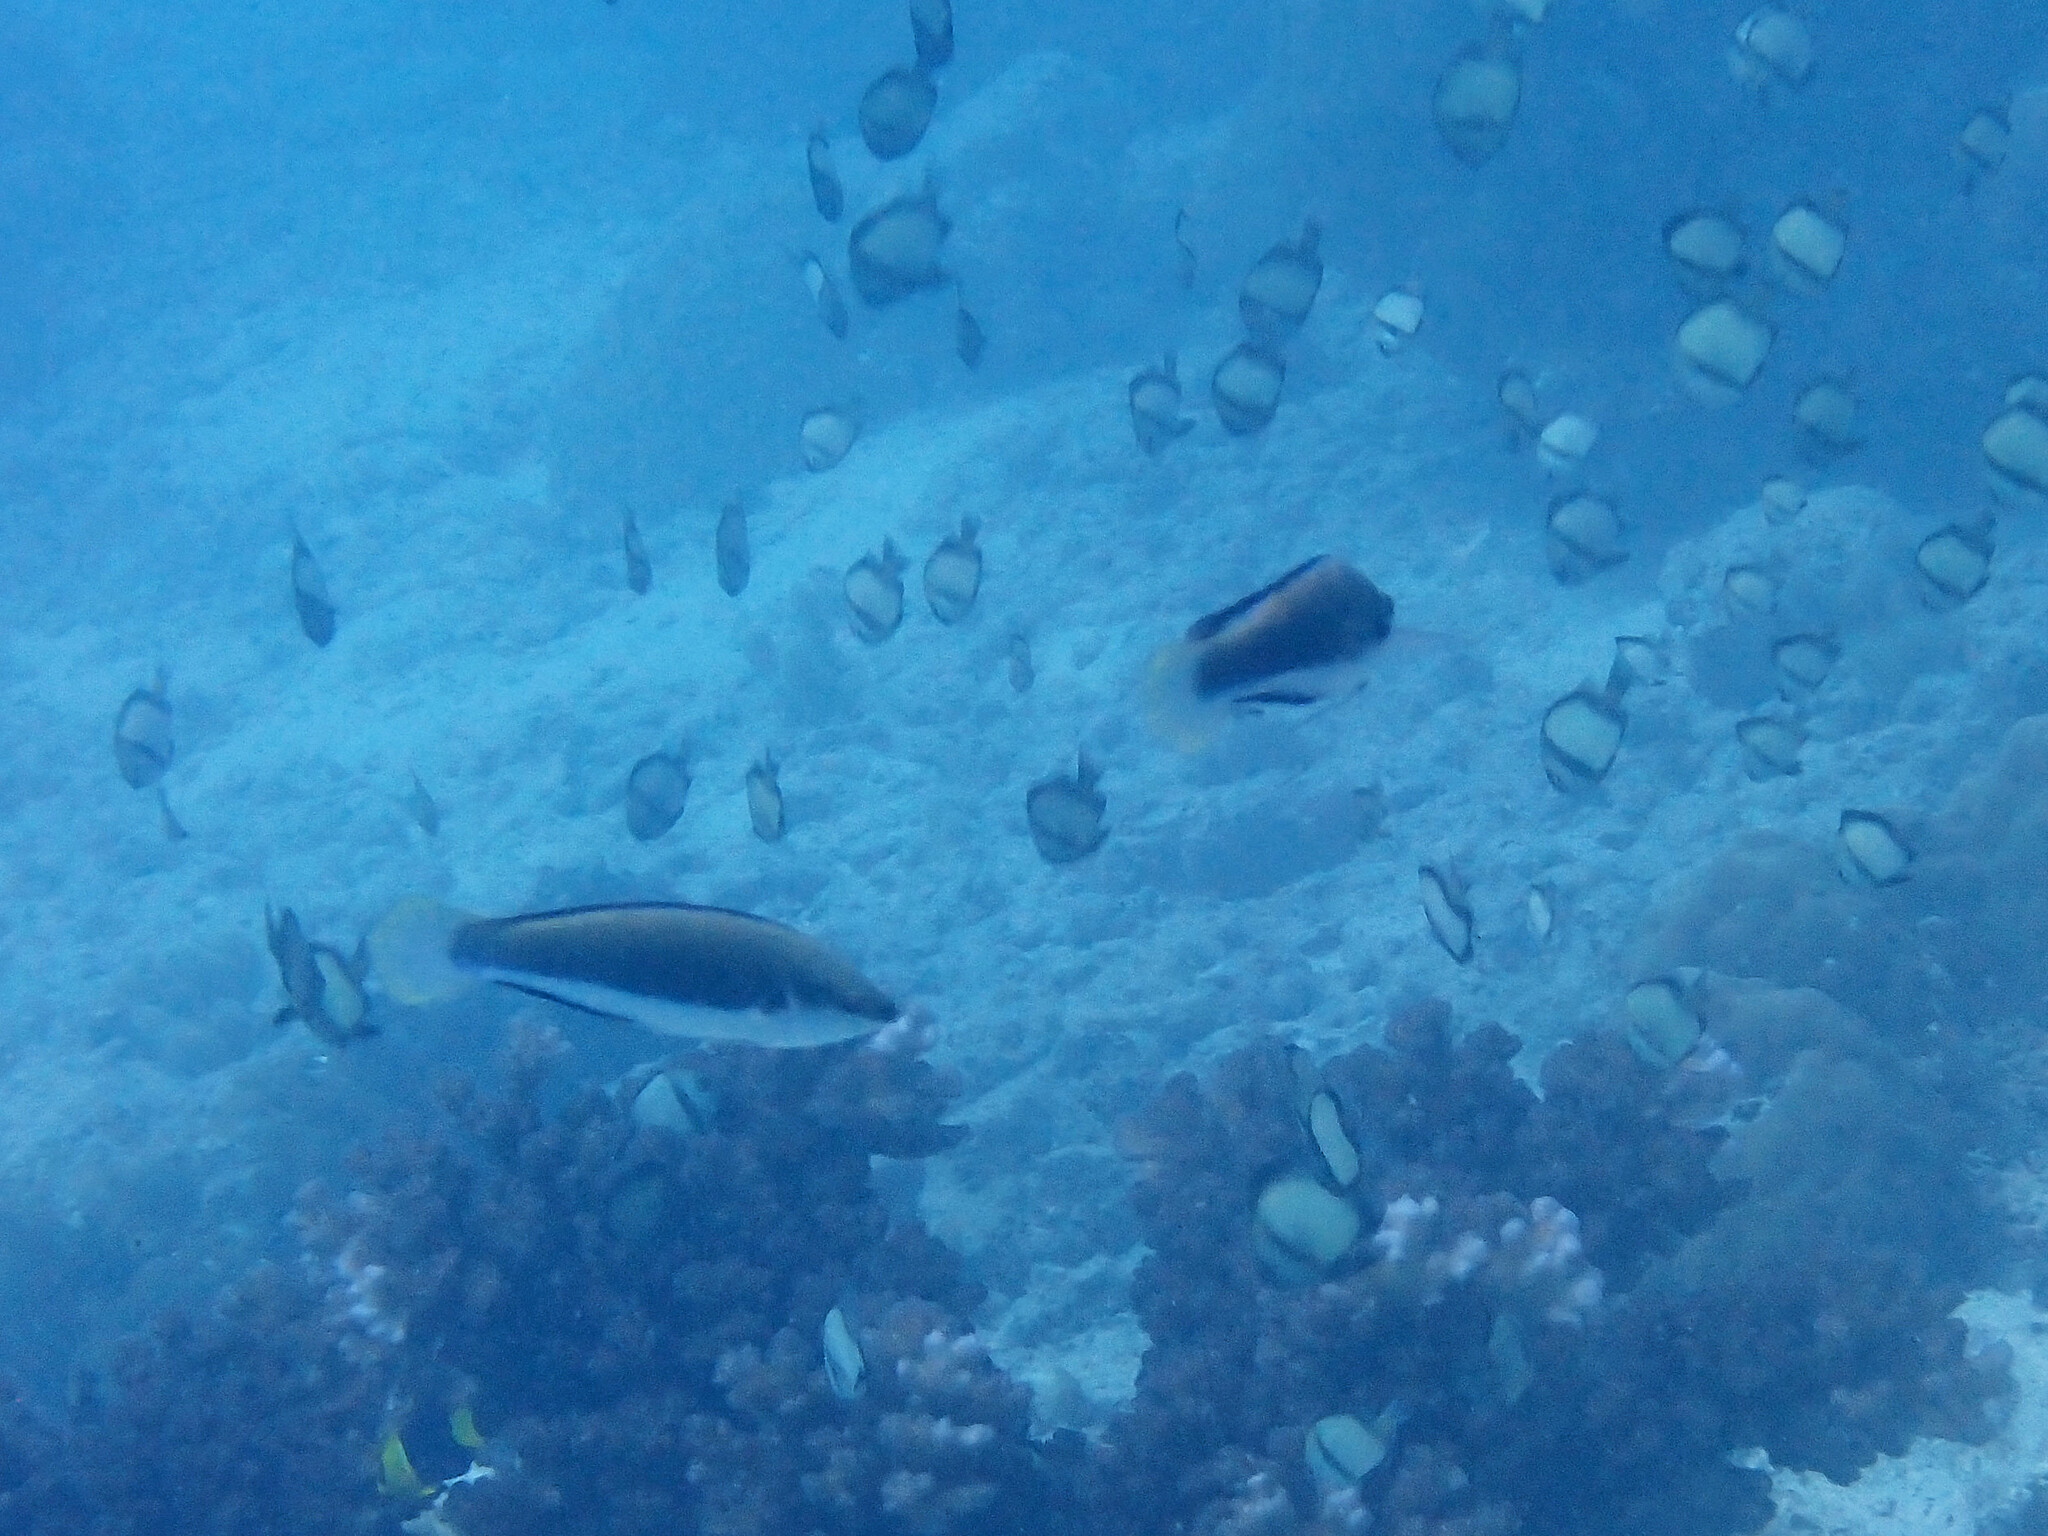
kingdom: Animalia
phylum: Chordata
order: Perciformes
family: Labridae
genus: Cirrhilabrus
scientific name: Cirrhilabrus punctatus
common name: Dotted wrasse
